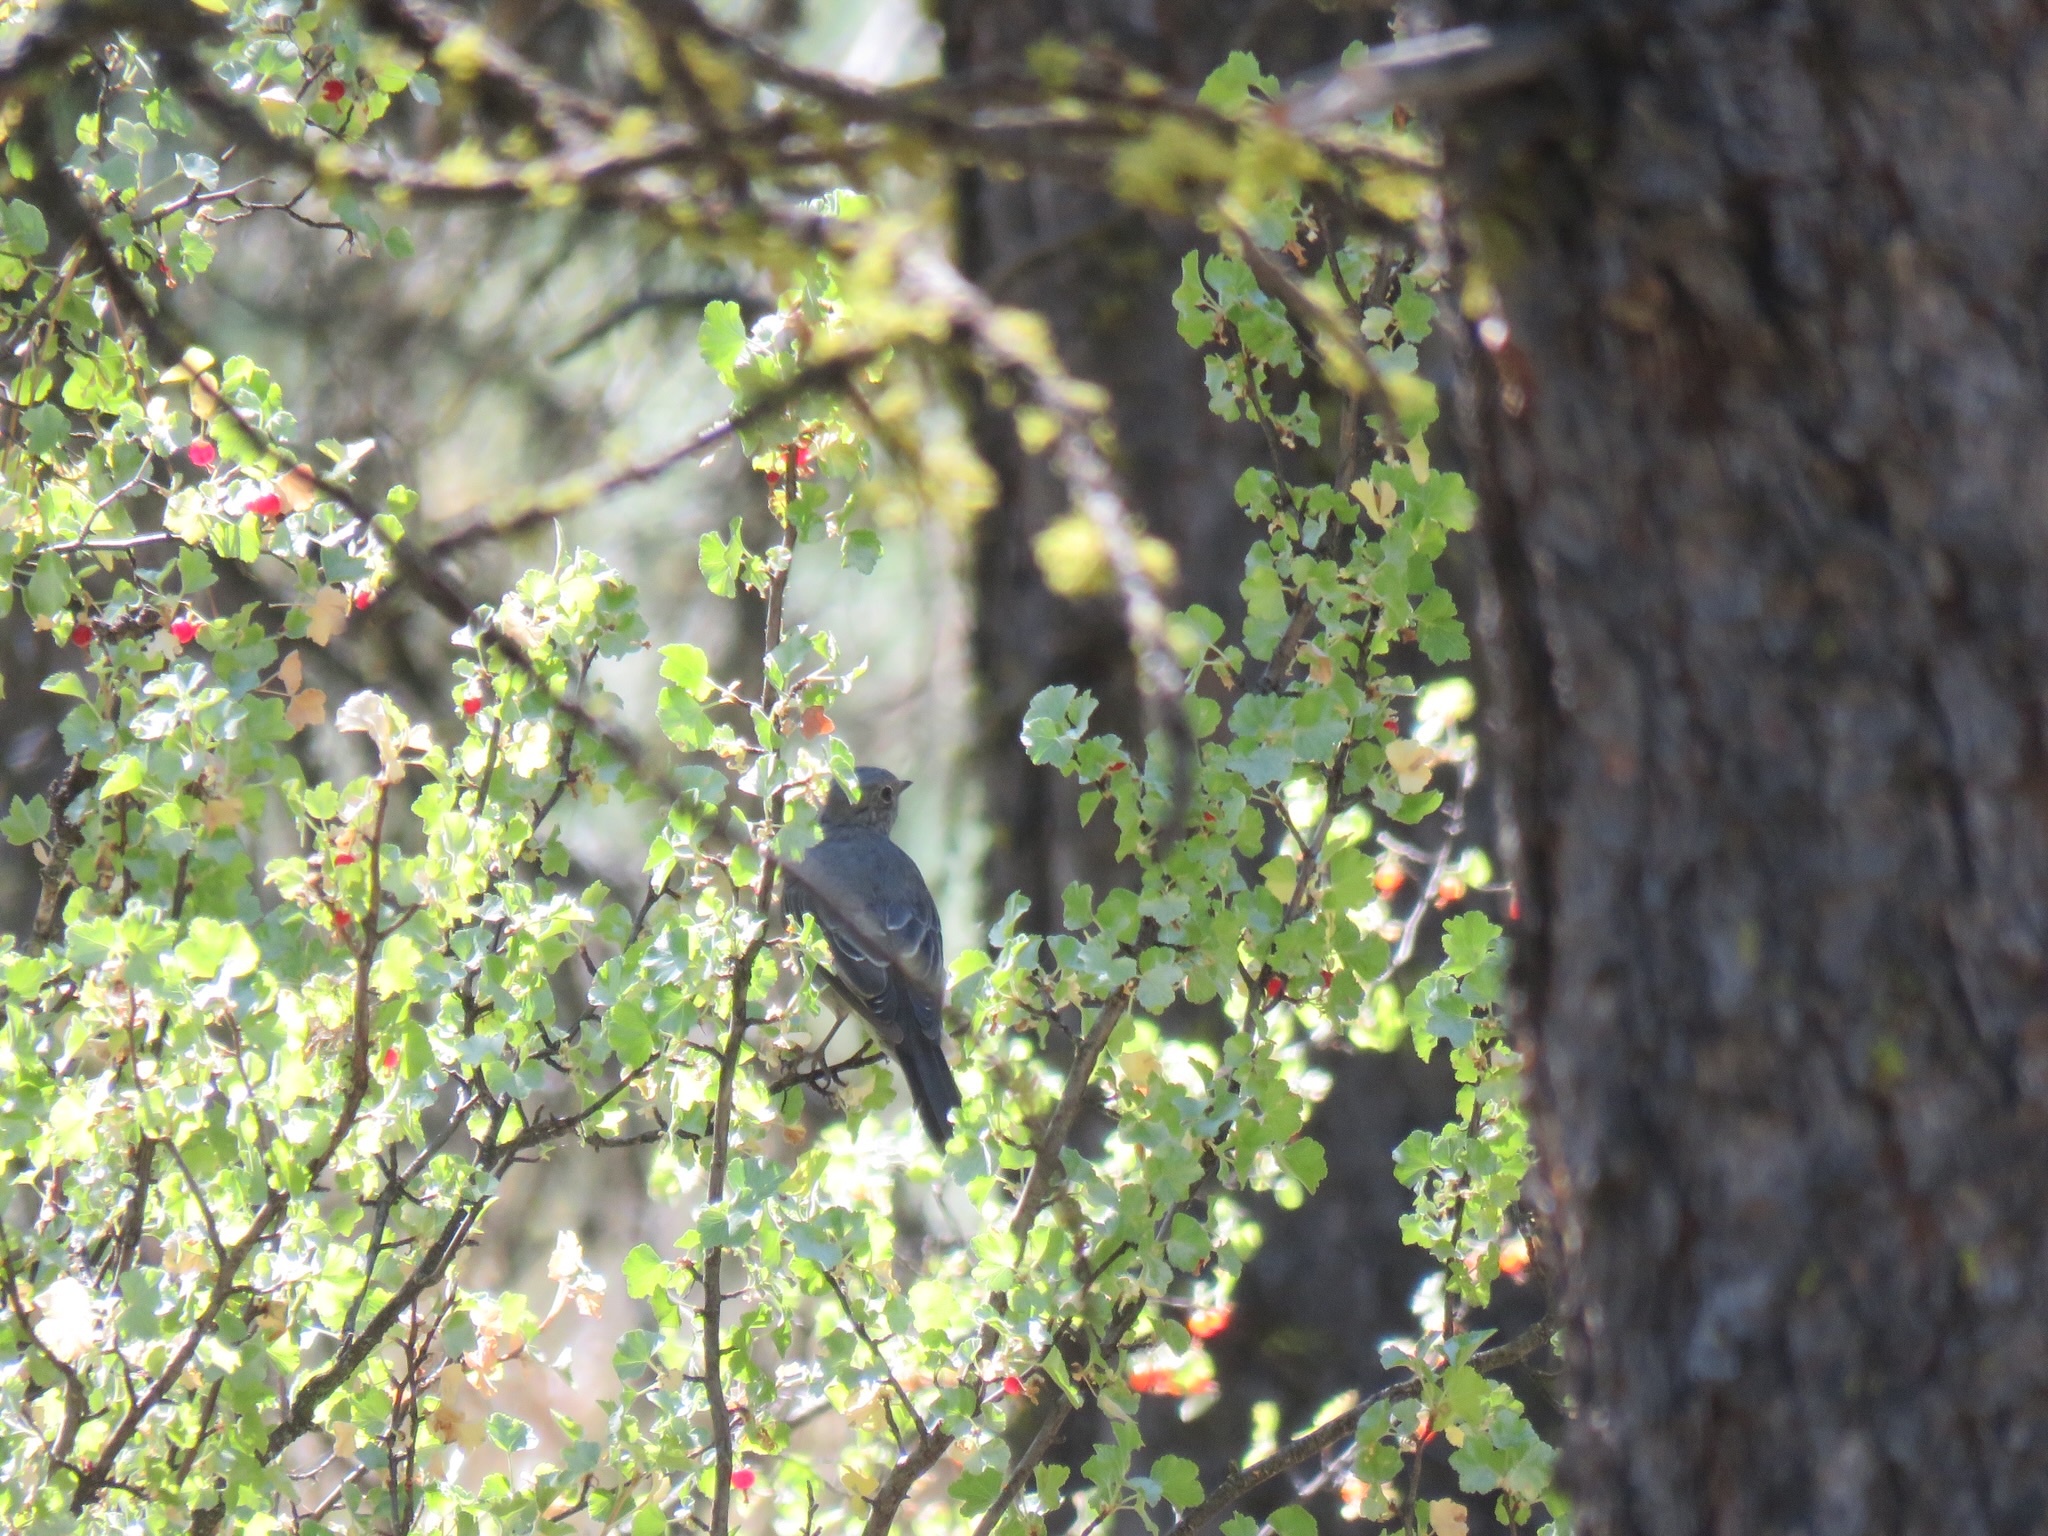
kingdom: Animalia
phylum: Chordata
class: Aves
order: Passeriformes
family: Turdidae
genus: Myadestes
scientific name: Myadestes townsendi
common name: Townsend's solitaire
